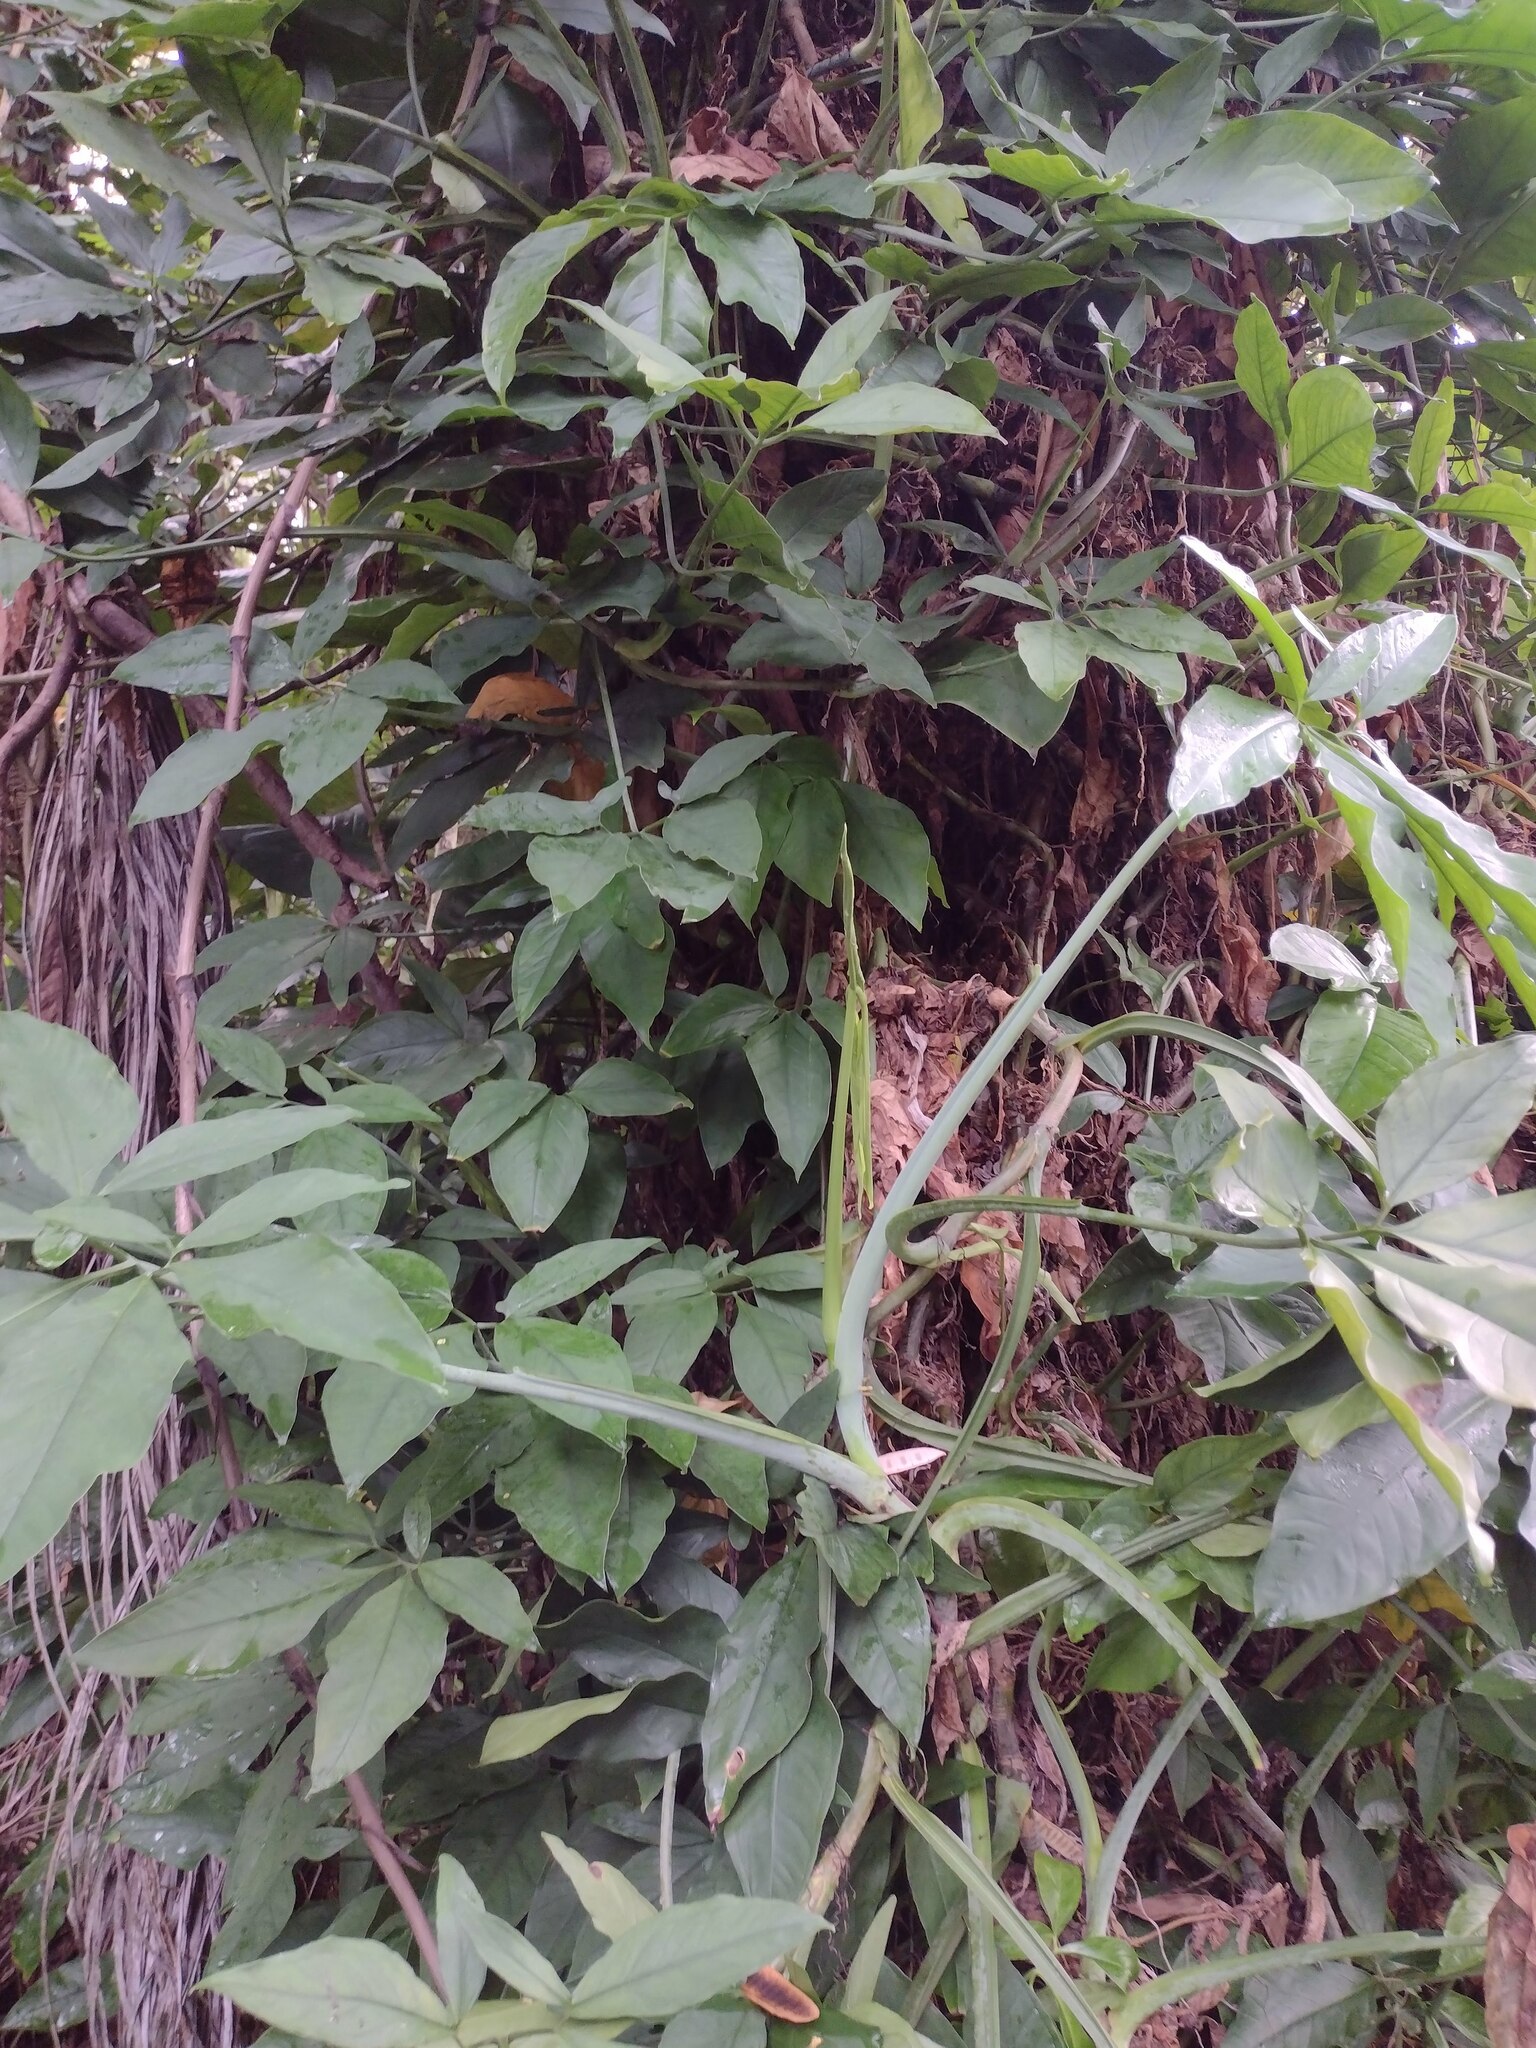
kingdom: Plantae
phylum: Tracheophyta
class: Liliopsida
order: Alismatales
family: Araceae
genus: Syngonium
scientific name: Syngonium podophyllum
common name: American evergreen
